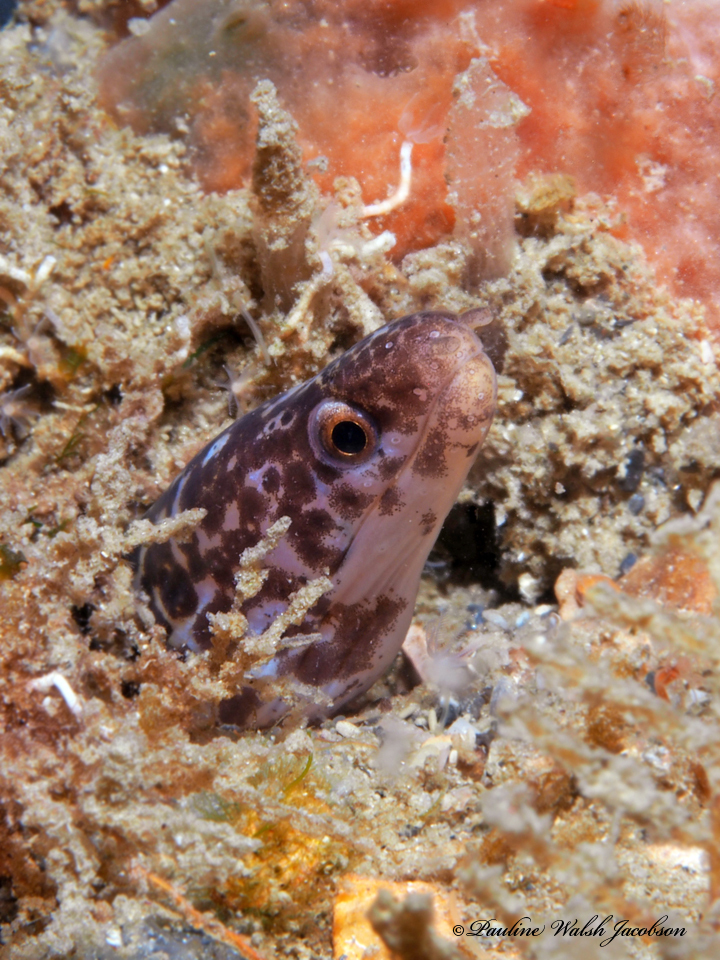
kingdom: Animalia
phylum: Chordata
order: Anguilliformes
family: Muraenidae
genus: Gymnothorax
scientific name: Gymnothorax moringa
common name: Spotted moray
